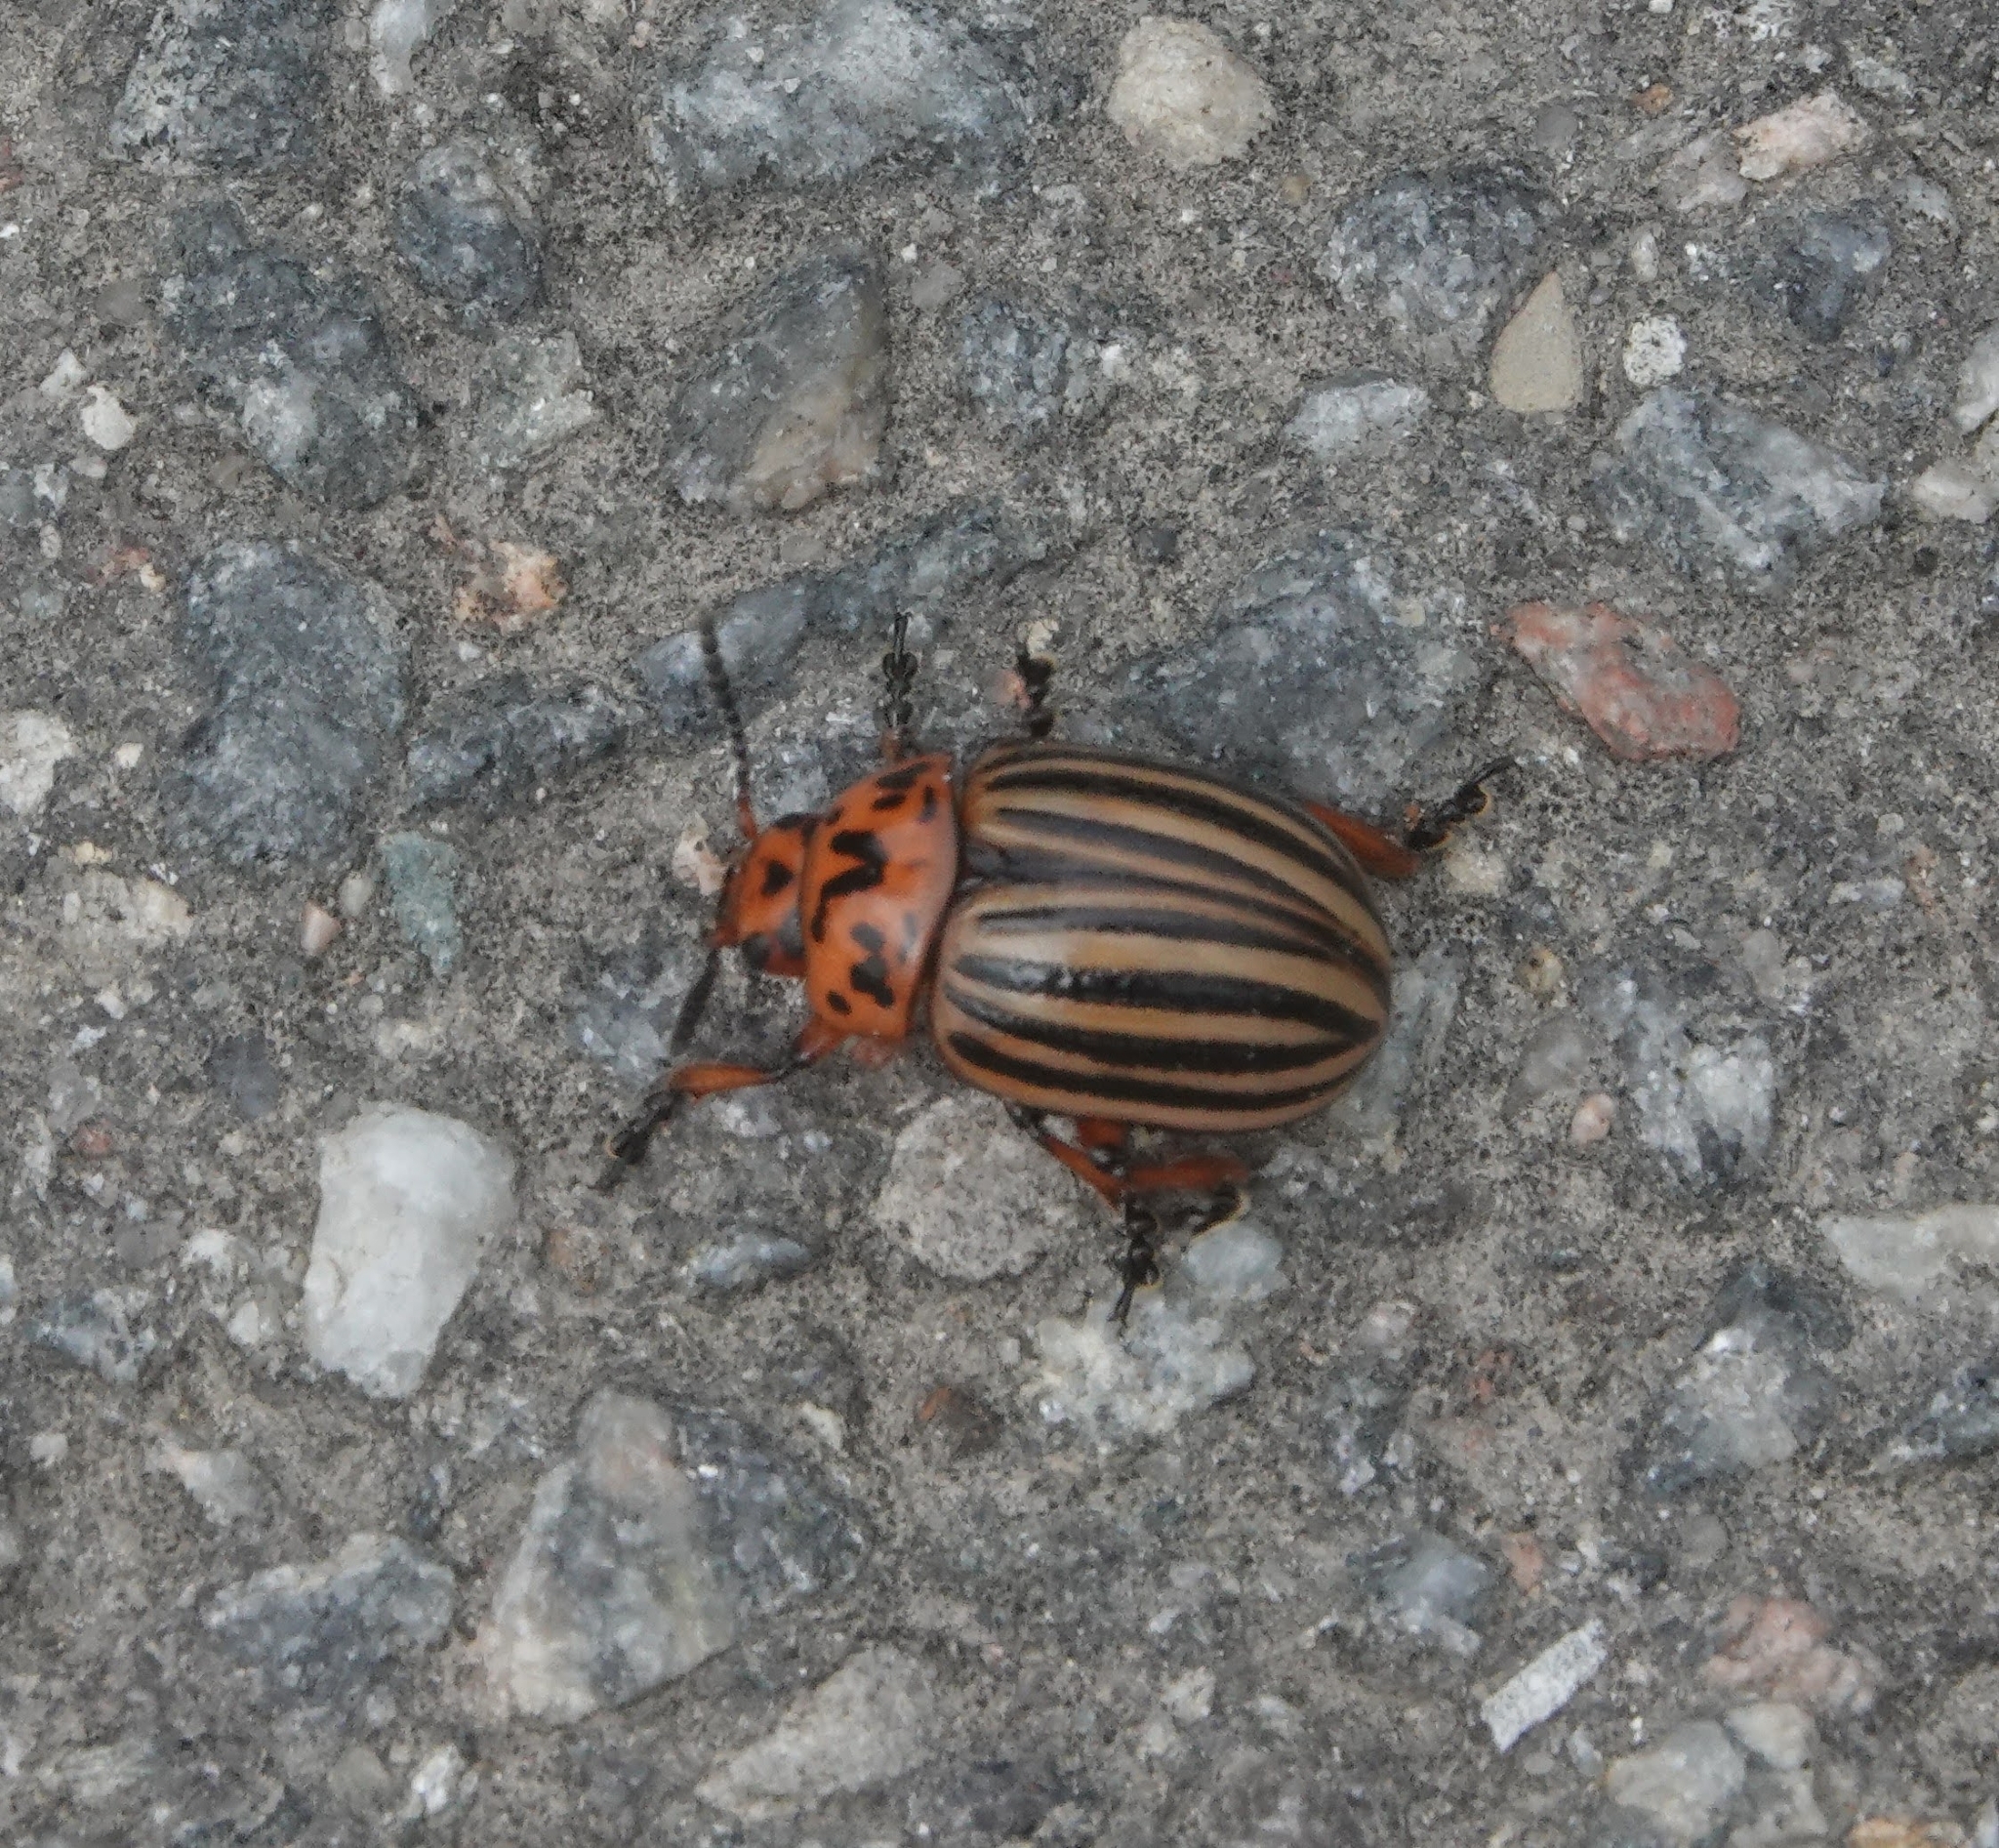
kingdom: Animalia
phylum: Arthropoda
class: Insecta
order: Coleoptera
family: Chrysomelidae
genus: Leptinotarsa
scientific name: Leptinotarsa decemlineata
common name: Colorado potato beetle
